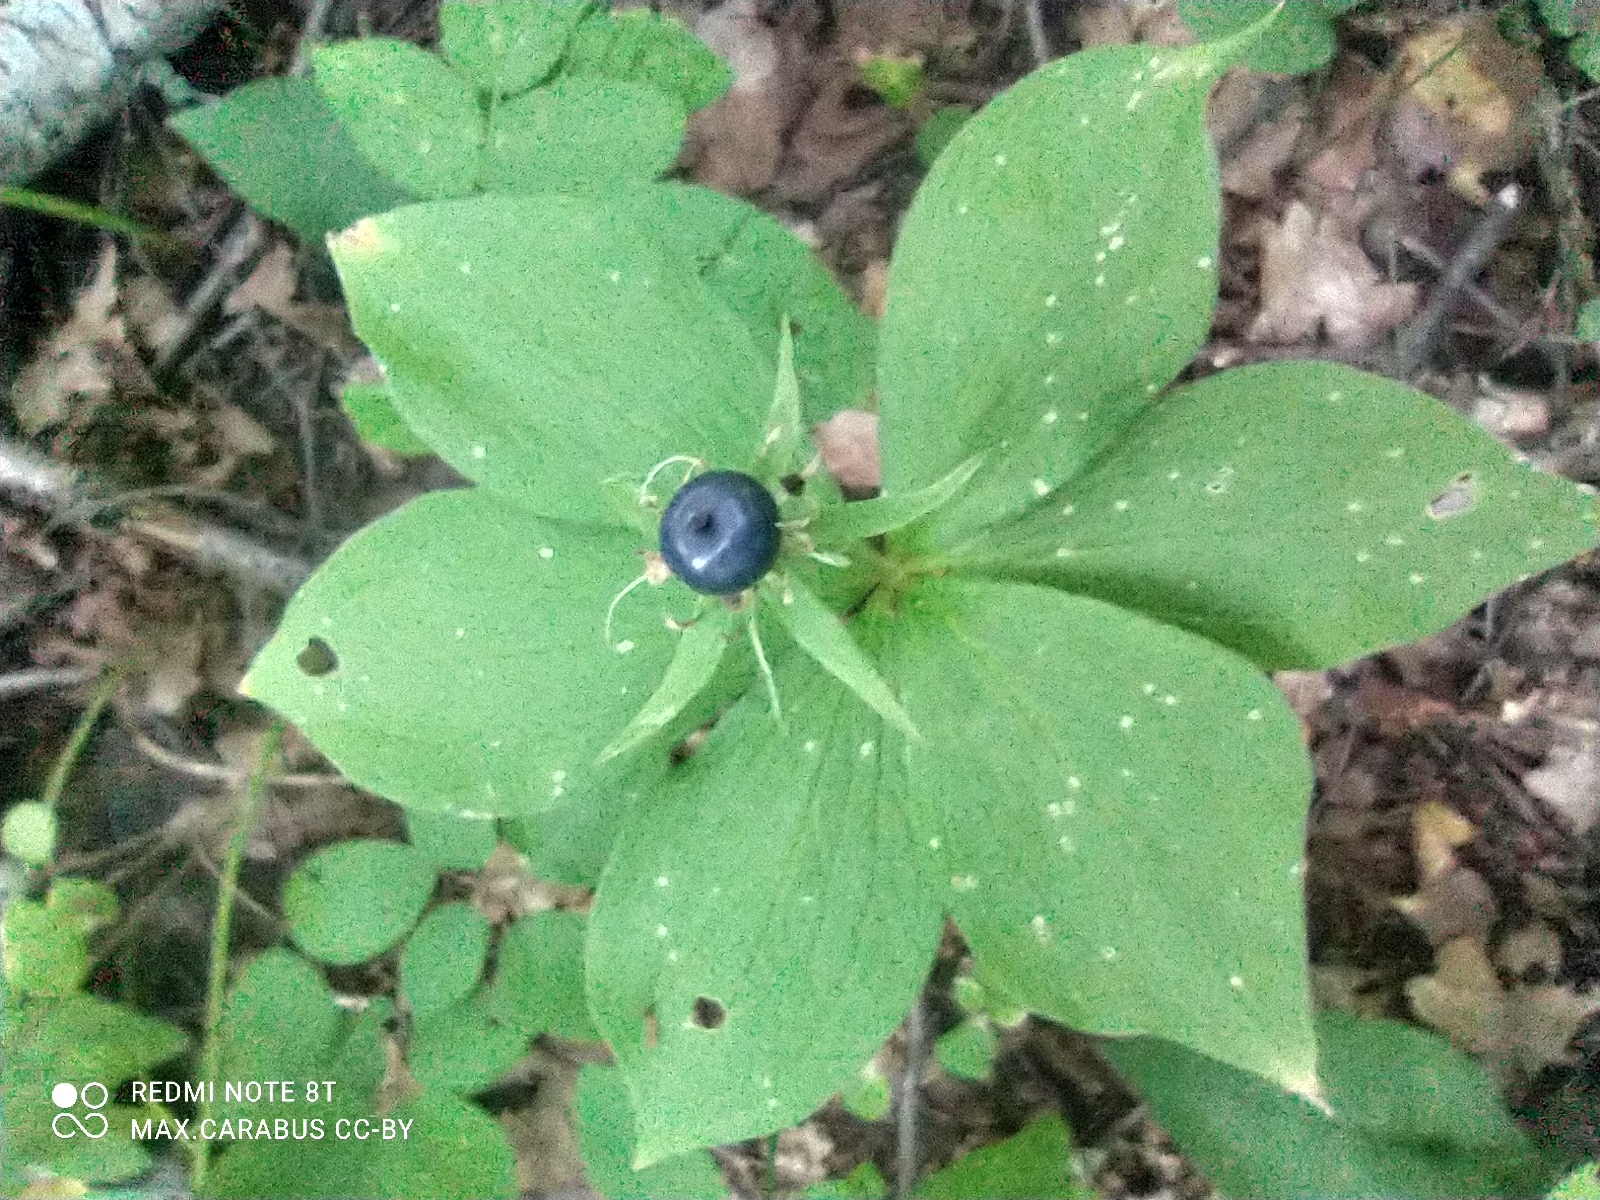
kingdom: Plantae
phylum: Tracheophyta
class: Liliopsida
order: Liliales
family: Melanthiaceae
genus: Paris
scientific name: Paris quadrifolia
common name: Herb-paris
